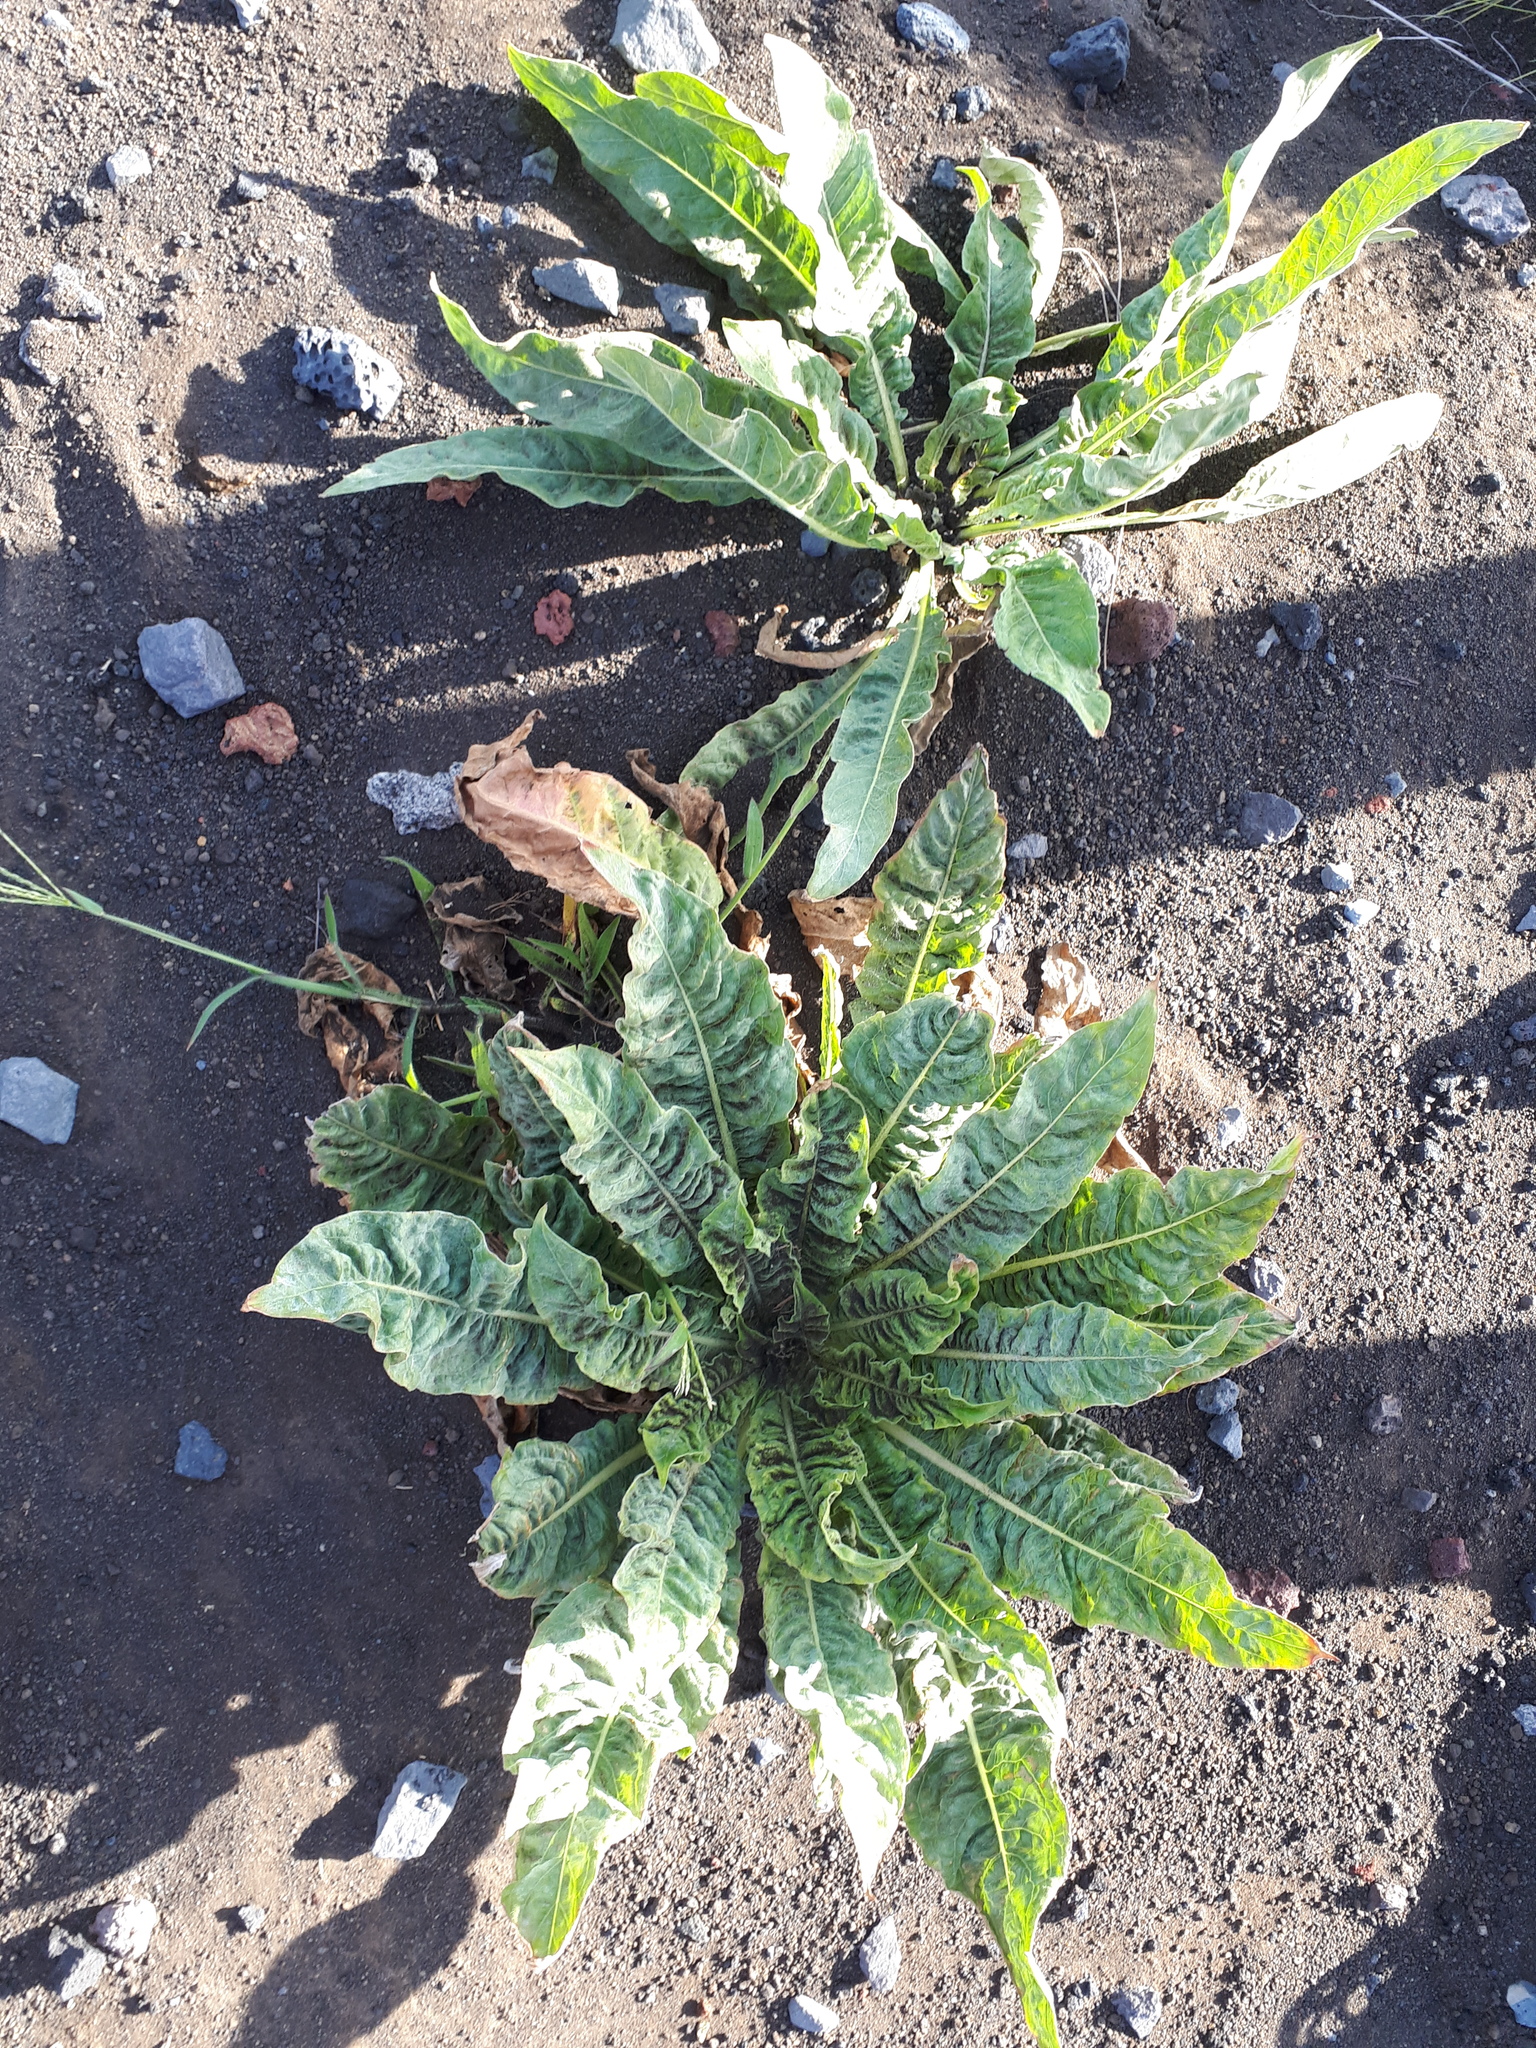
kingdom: Plantae
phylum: Tracheophyta
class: Magnoliopsida
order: Myrtales
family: Onagraceae
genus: Oenothera
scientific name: Oenothera glazioviana
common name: Large-flowered evening-primrose
